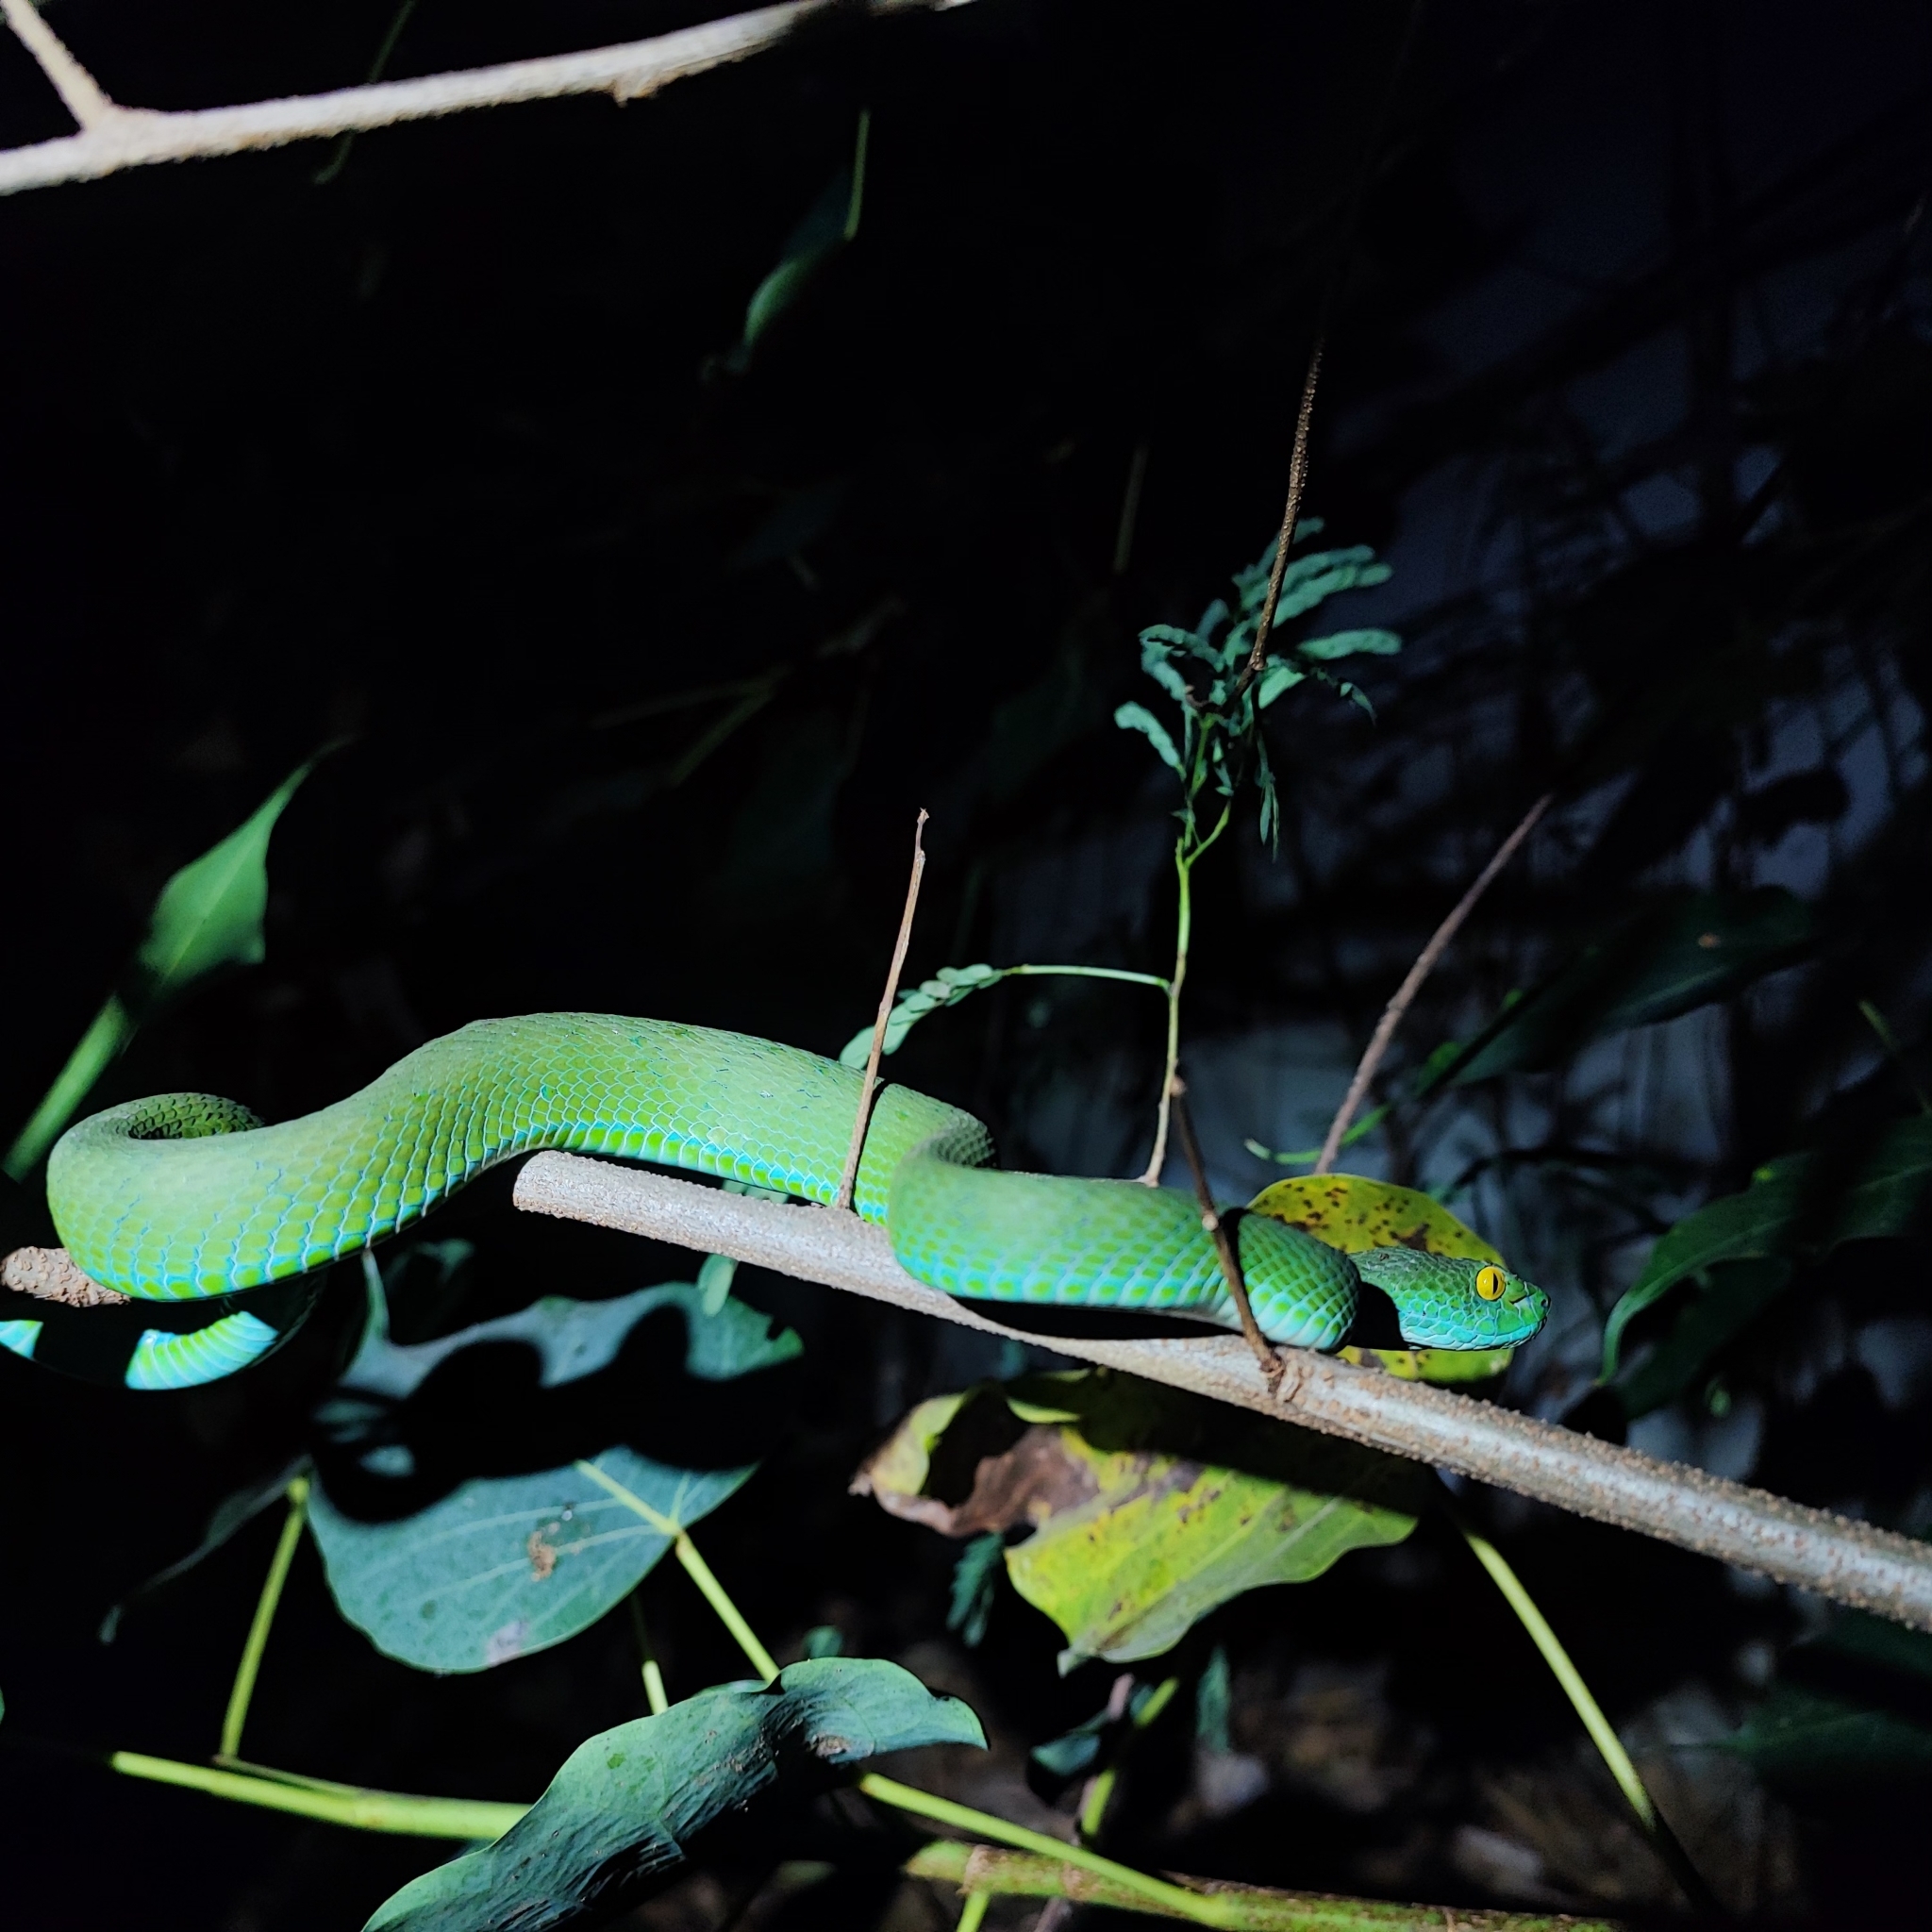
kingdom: Animalia
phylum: Chordata
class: Squamata
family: Viperidae
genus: Trimeresurus
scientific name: Trimeresurus macrops
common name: Kramer's pit viper
